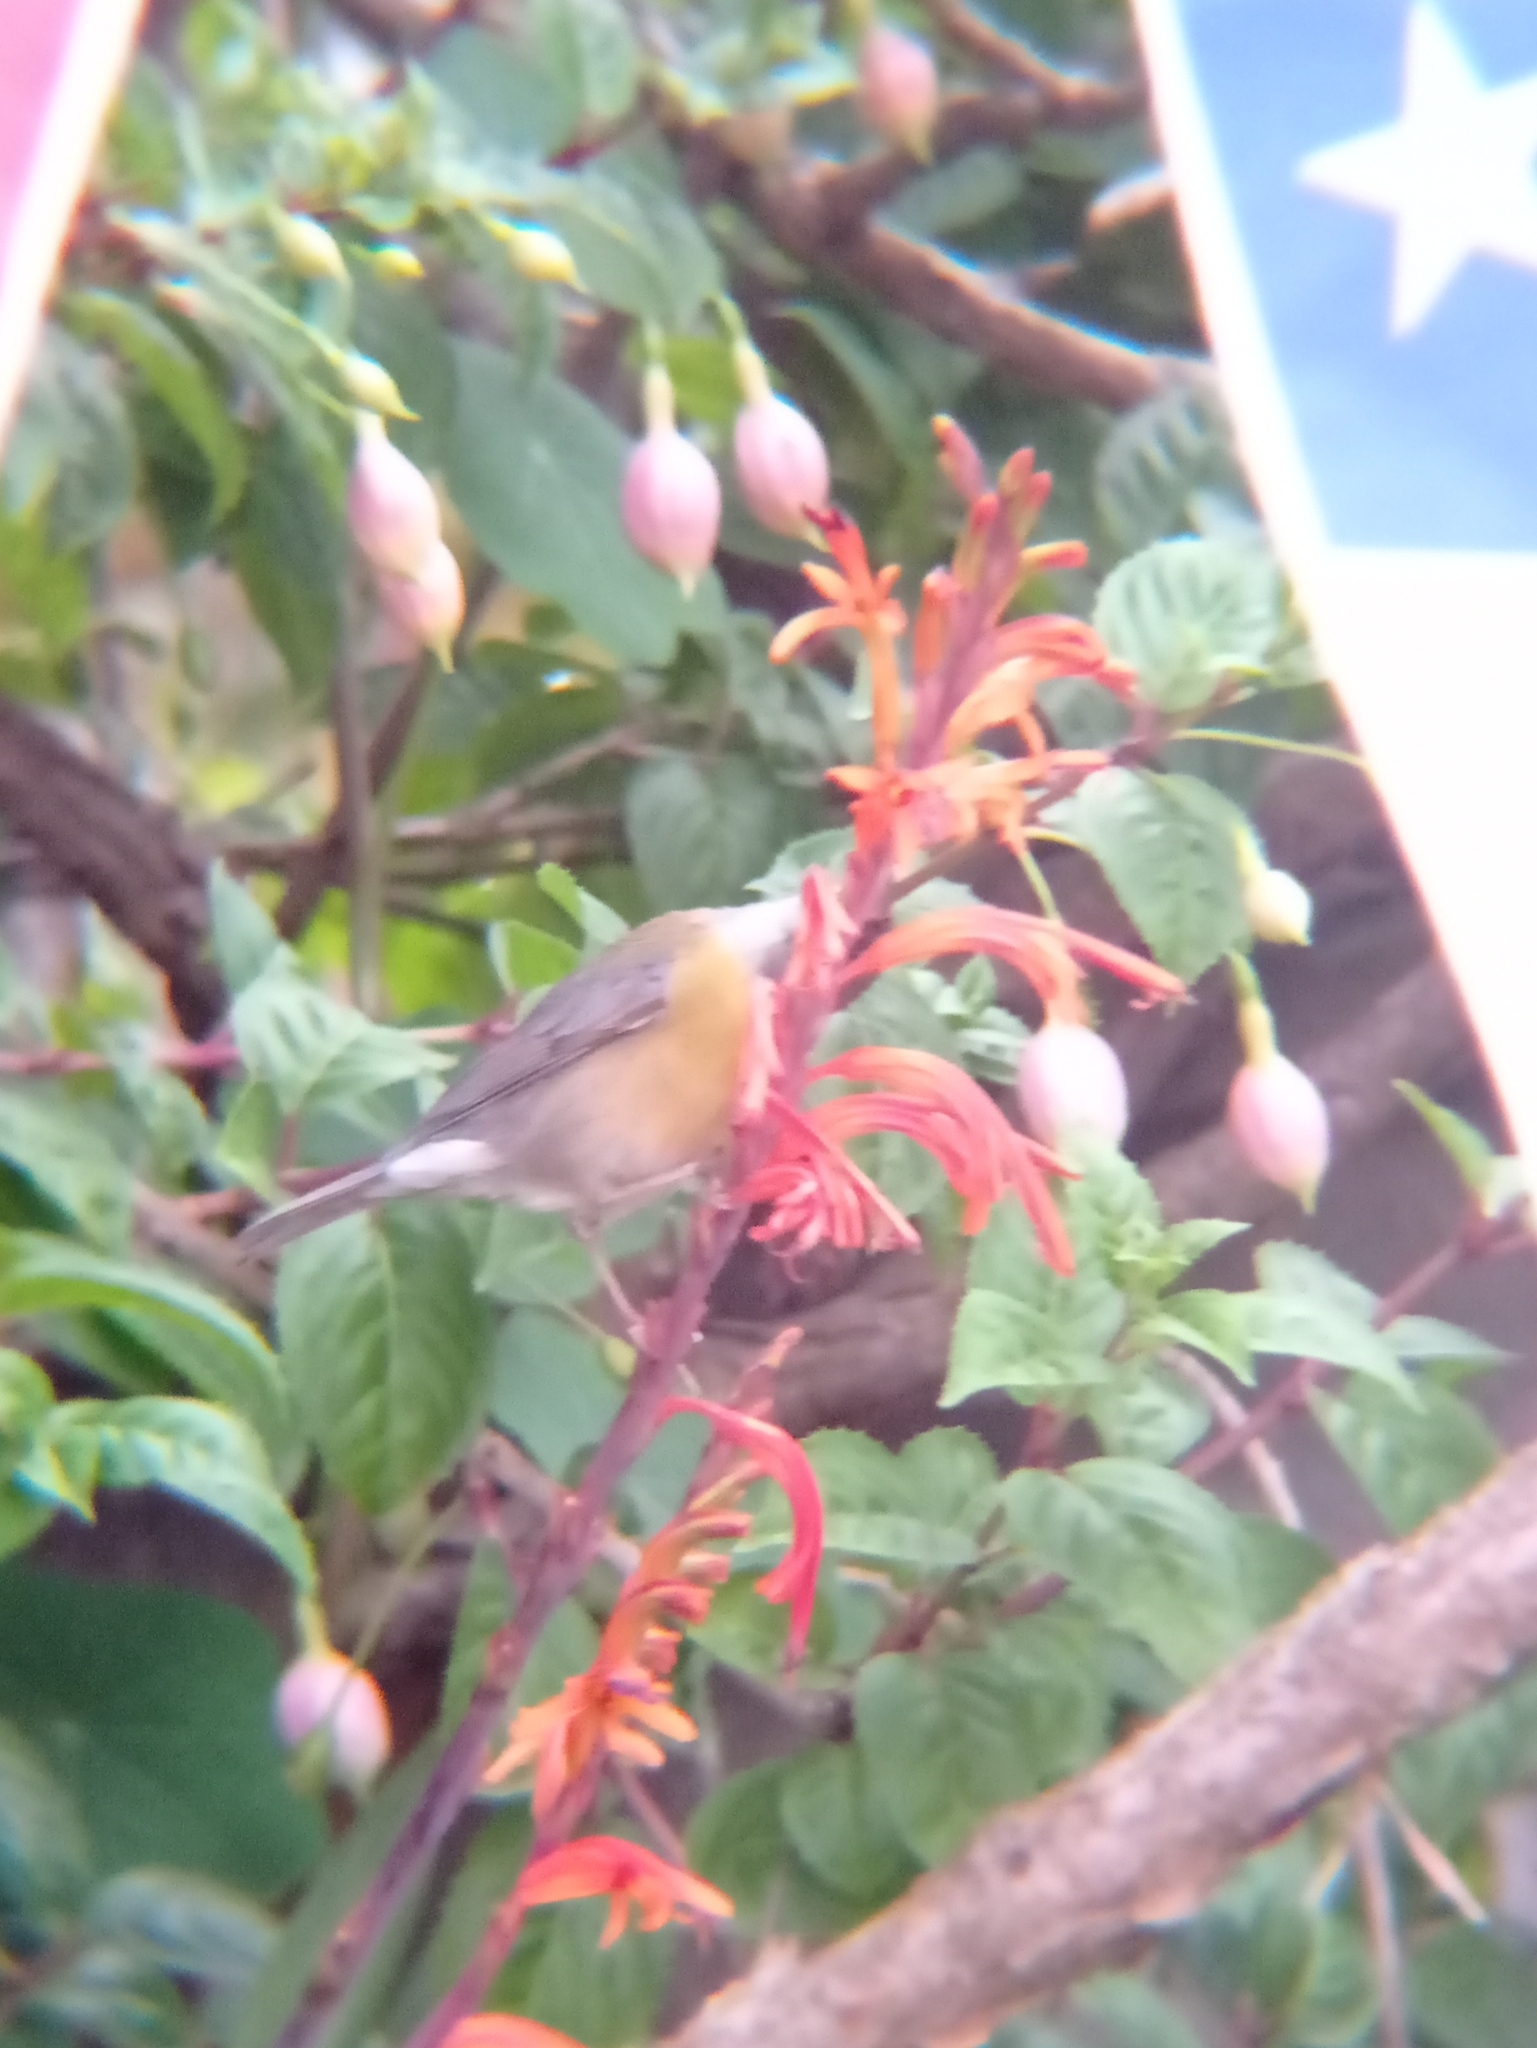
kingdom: Animalia
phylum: Chordata
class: Aves
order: Passeriformes
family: Thraupidae
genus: Phrygilus
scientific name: Phrygilus gayi
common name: Grey-hooded sierra finch
